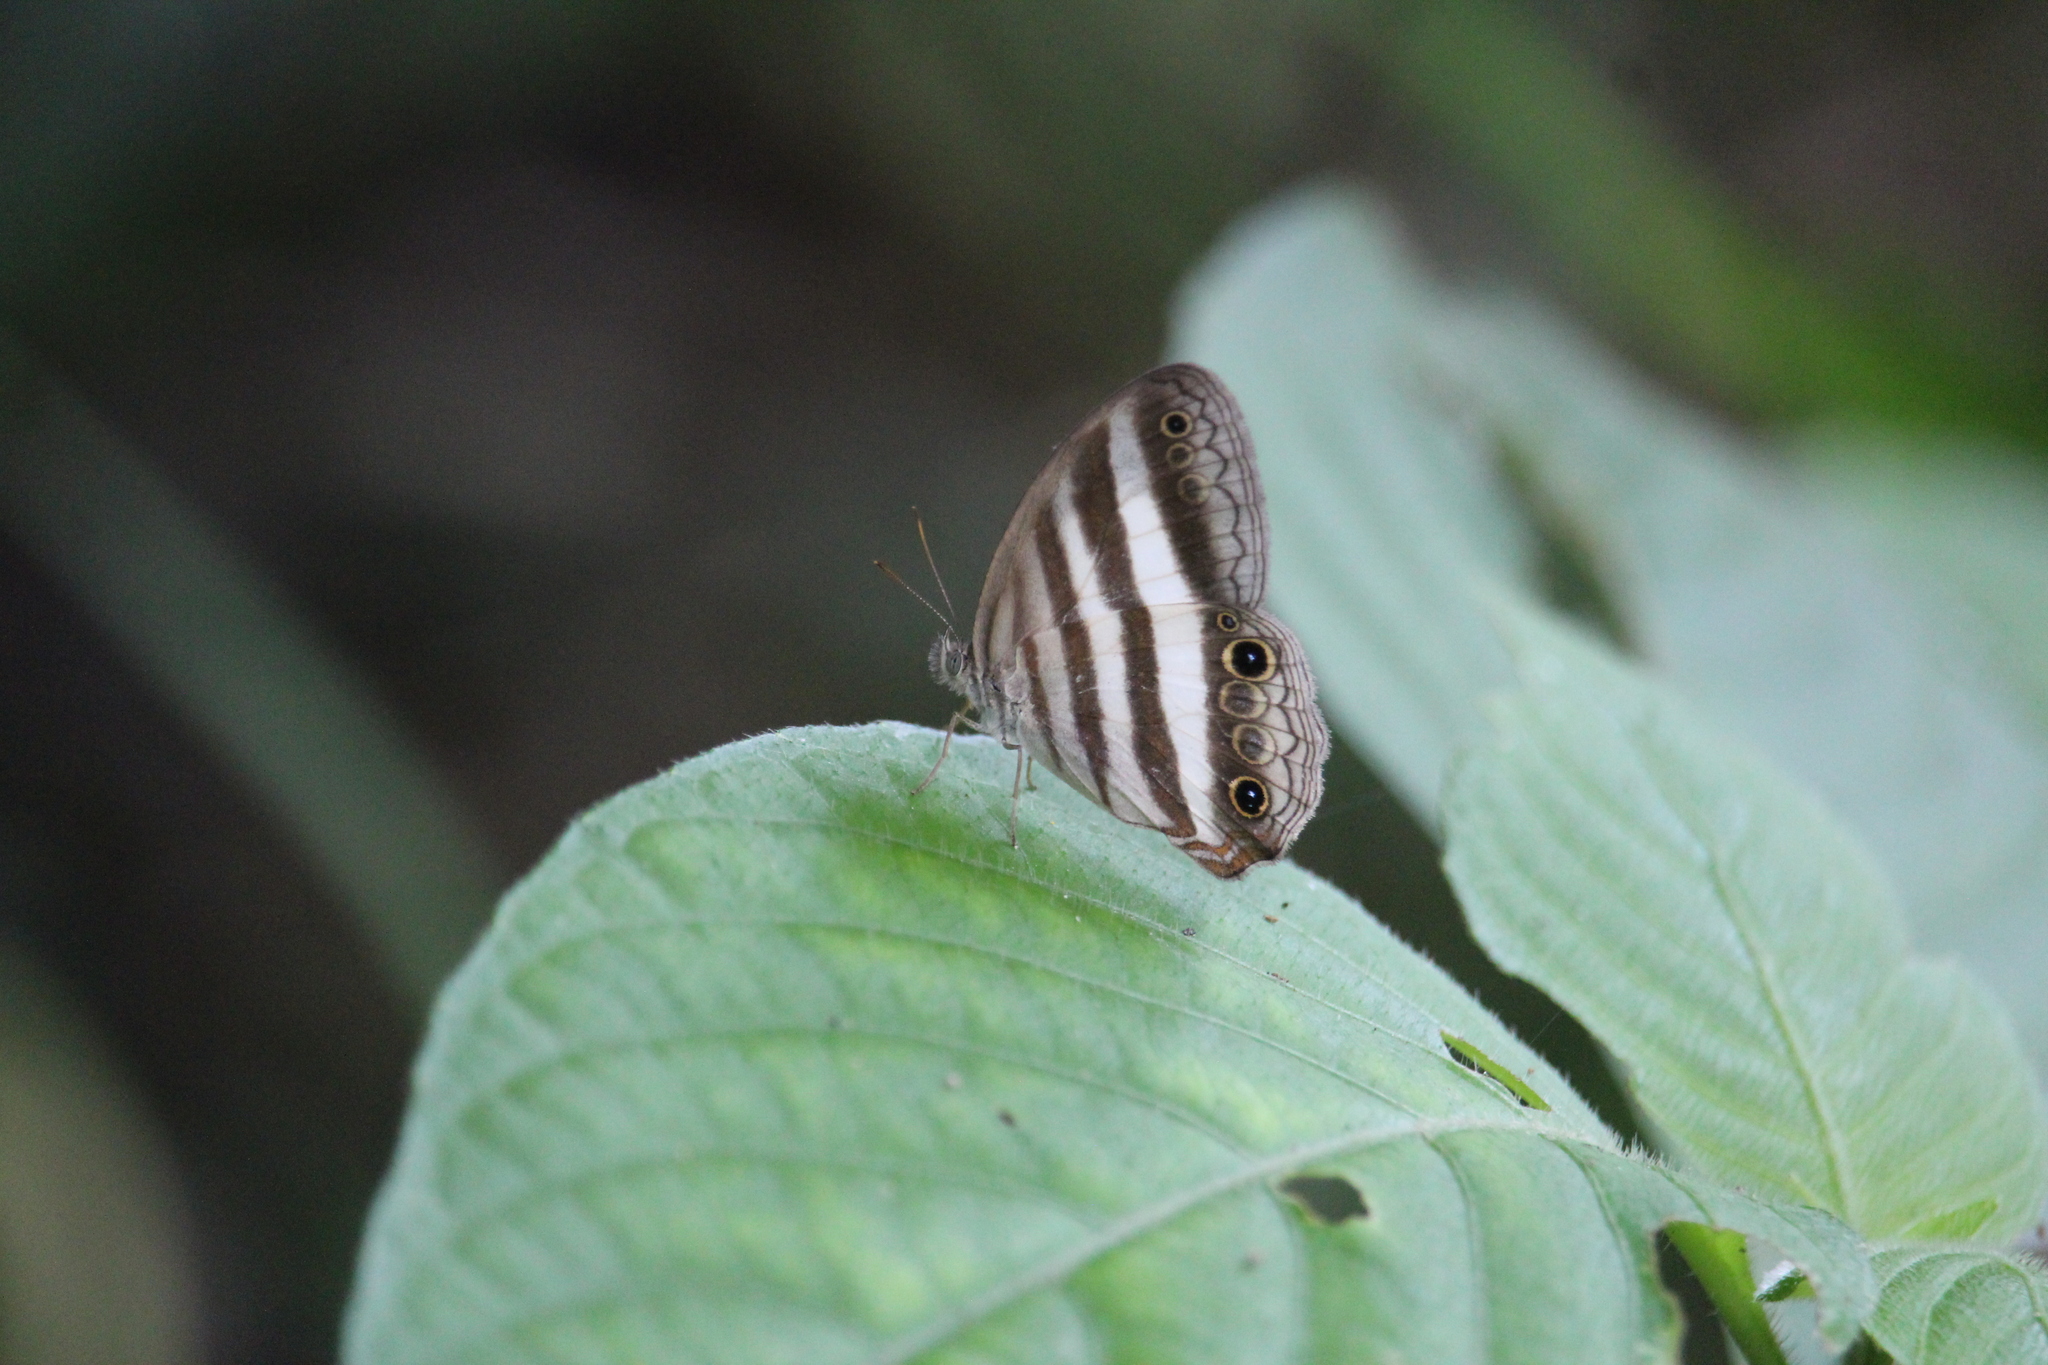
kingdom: Animalia
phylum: Arthropoda
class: Insecta
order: Lepidoptera
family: Nymphalidae
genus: Pareuptychia
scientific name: Pareuptychia hesione
